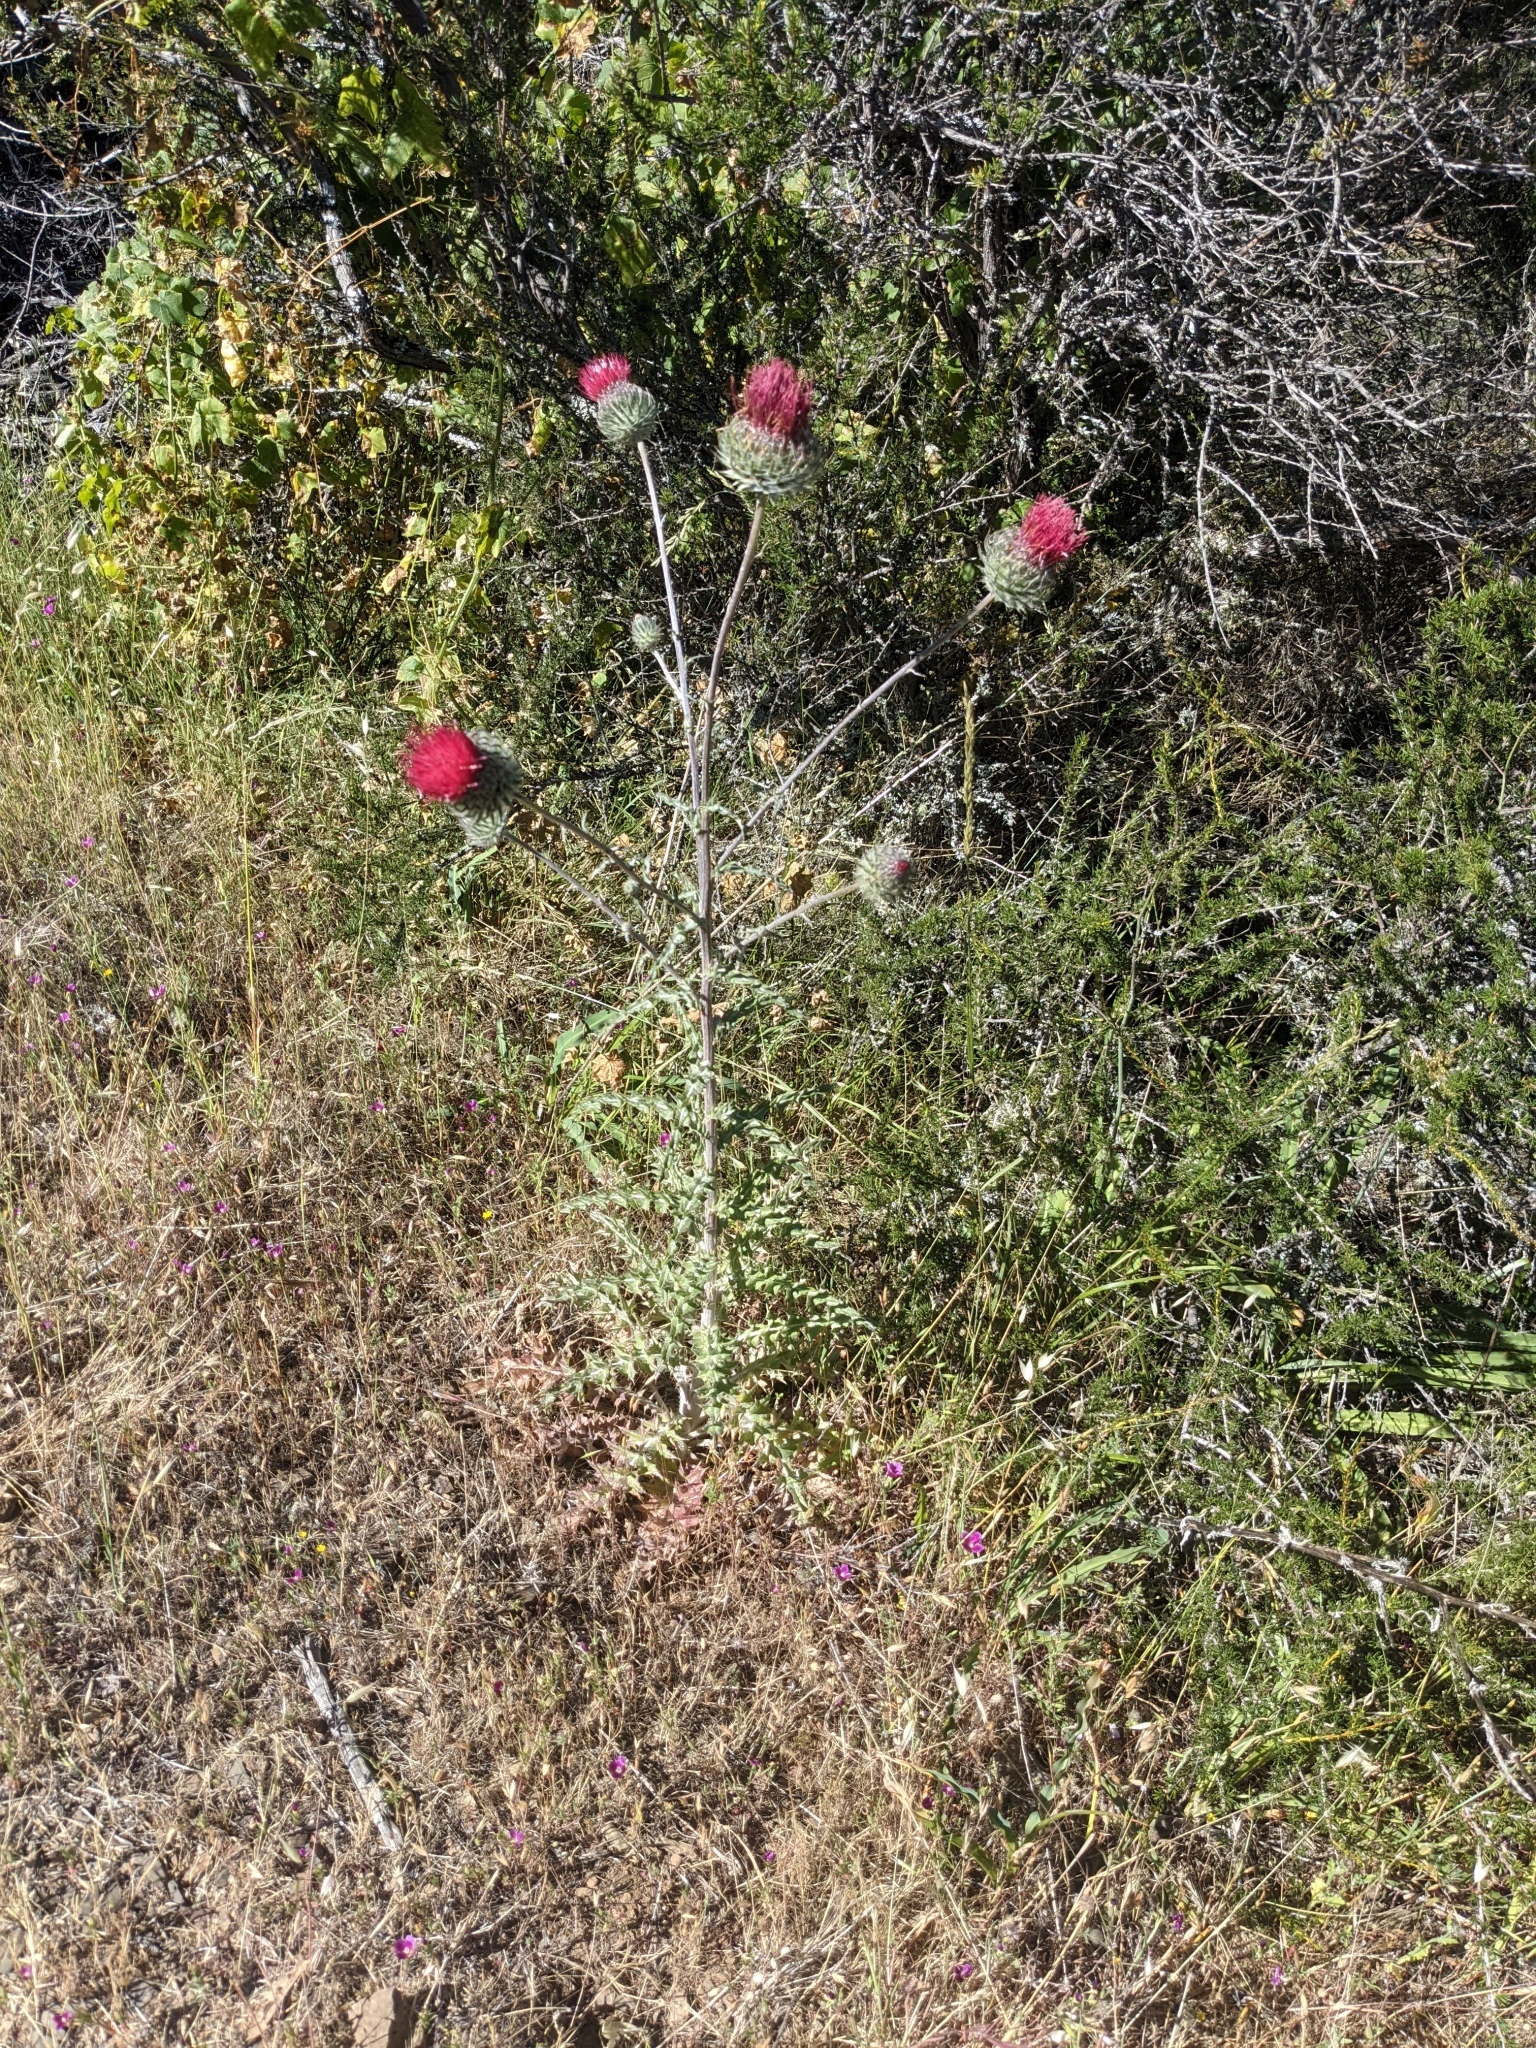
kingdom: Plantae
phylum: Tracheophyta
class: Magnoliopsida
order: Asterales
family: Asteraceae
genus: Cirsium
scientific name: Cirsium occidentale
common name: Western thistle
